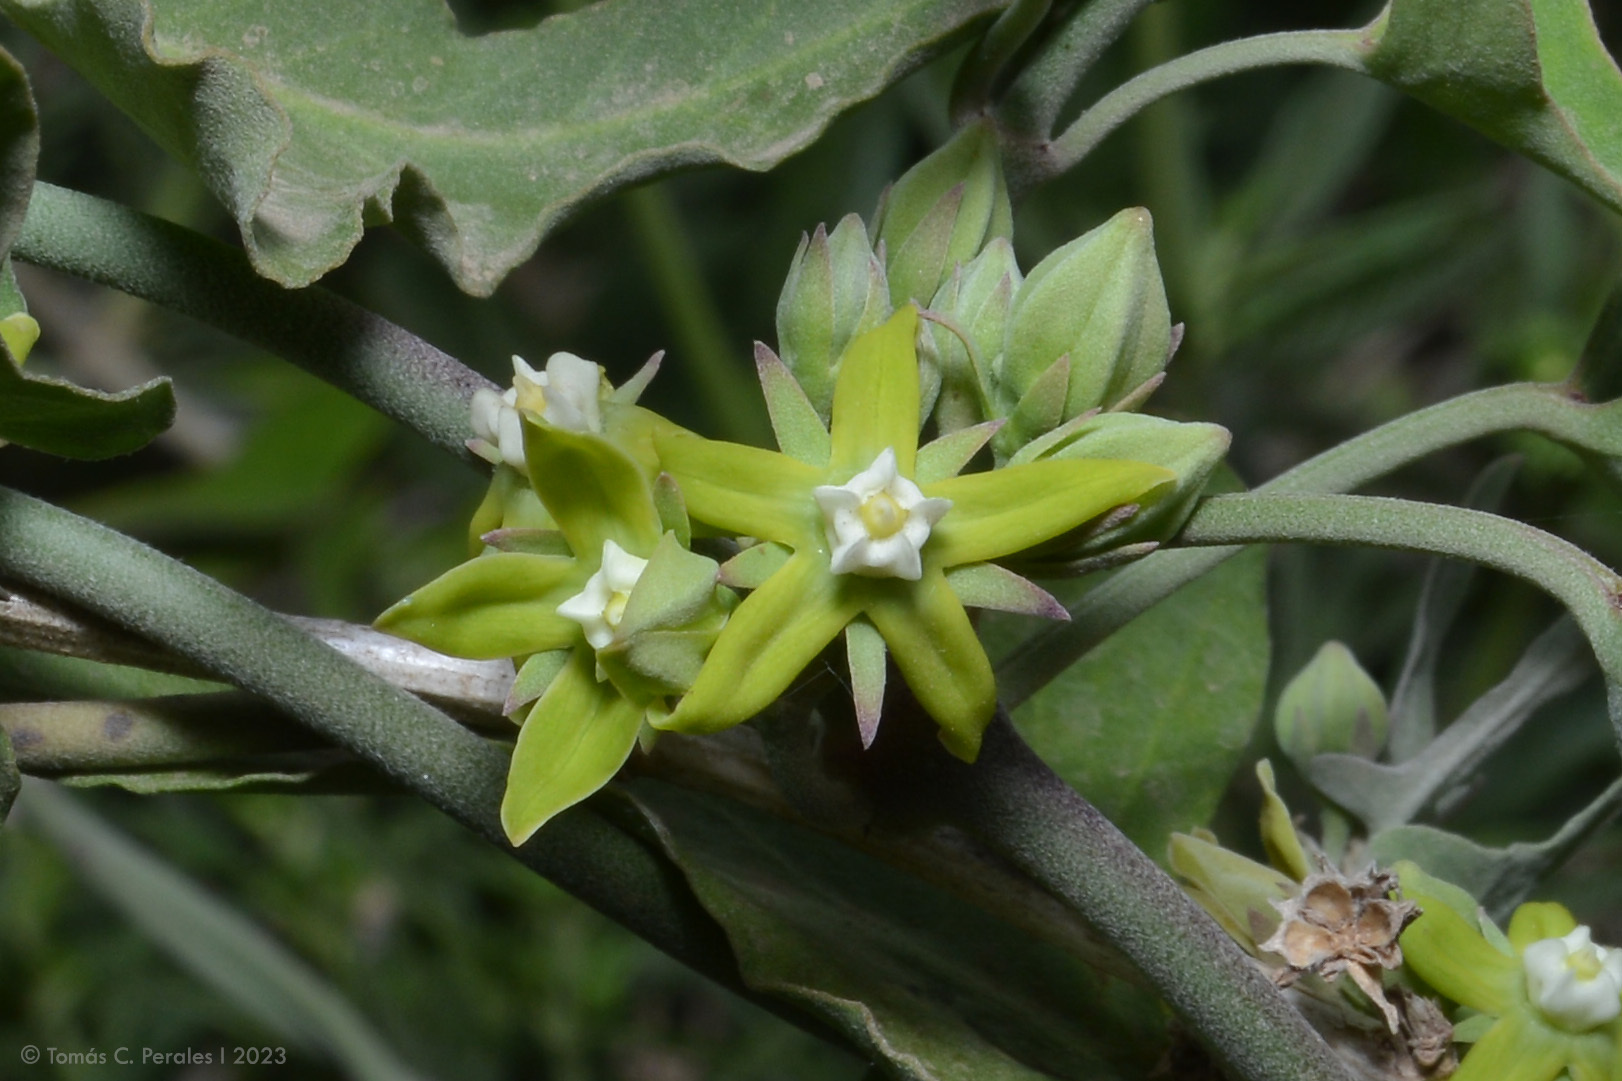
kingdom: Plantae
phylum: Tracheophyta
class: Magnoliopsida
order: Gentianales
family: Apocynaceae
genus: Araujia
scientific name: Araujia brachystephana
